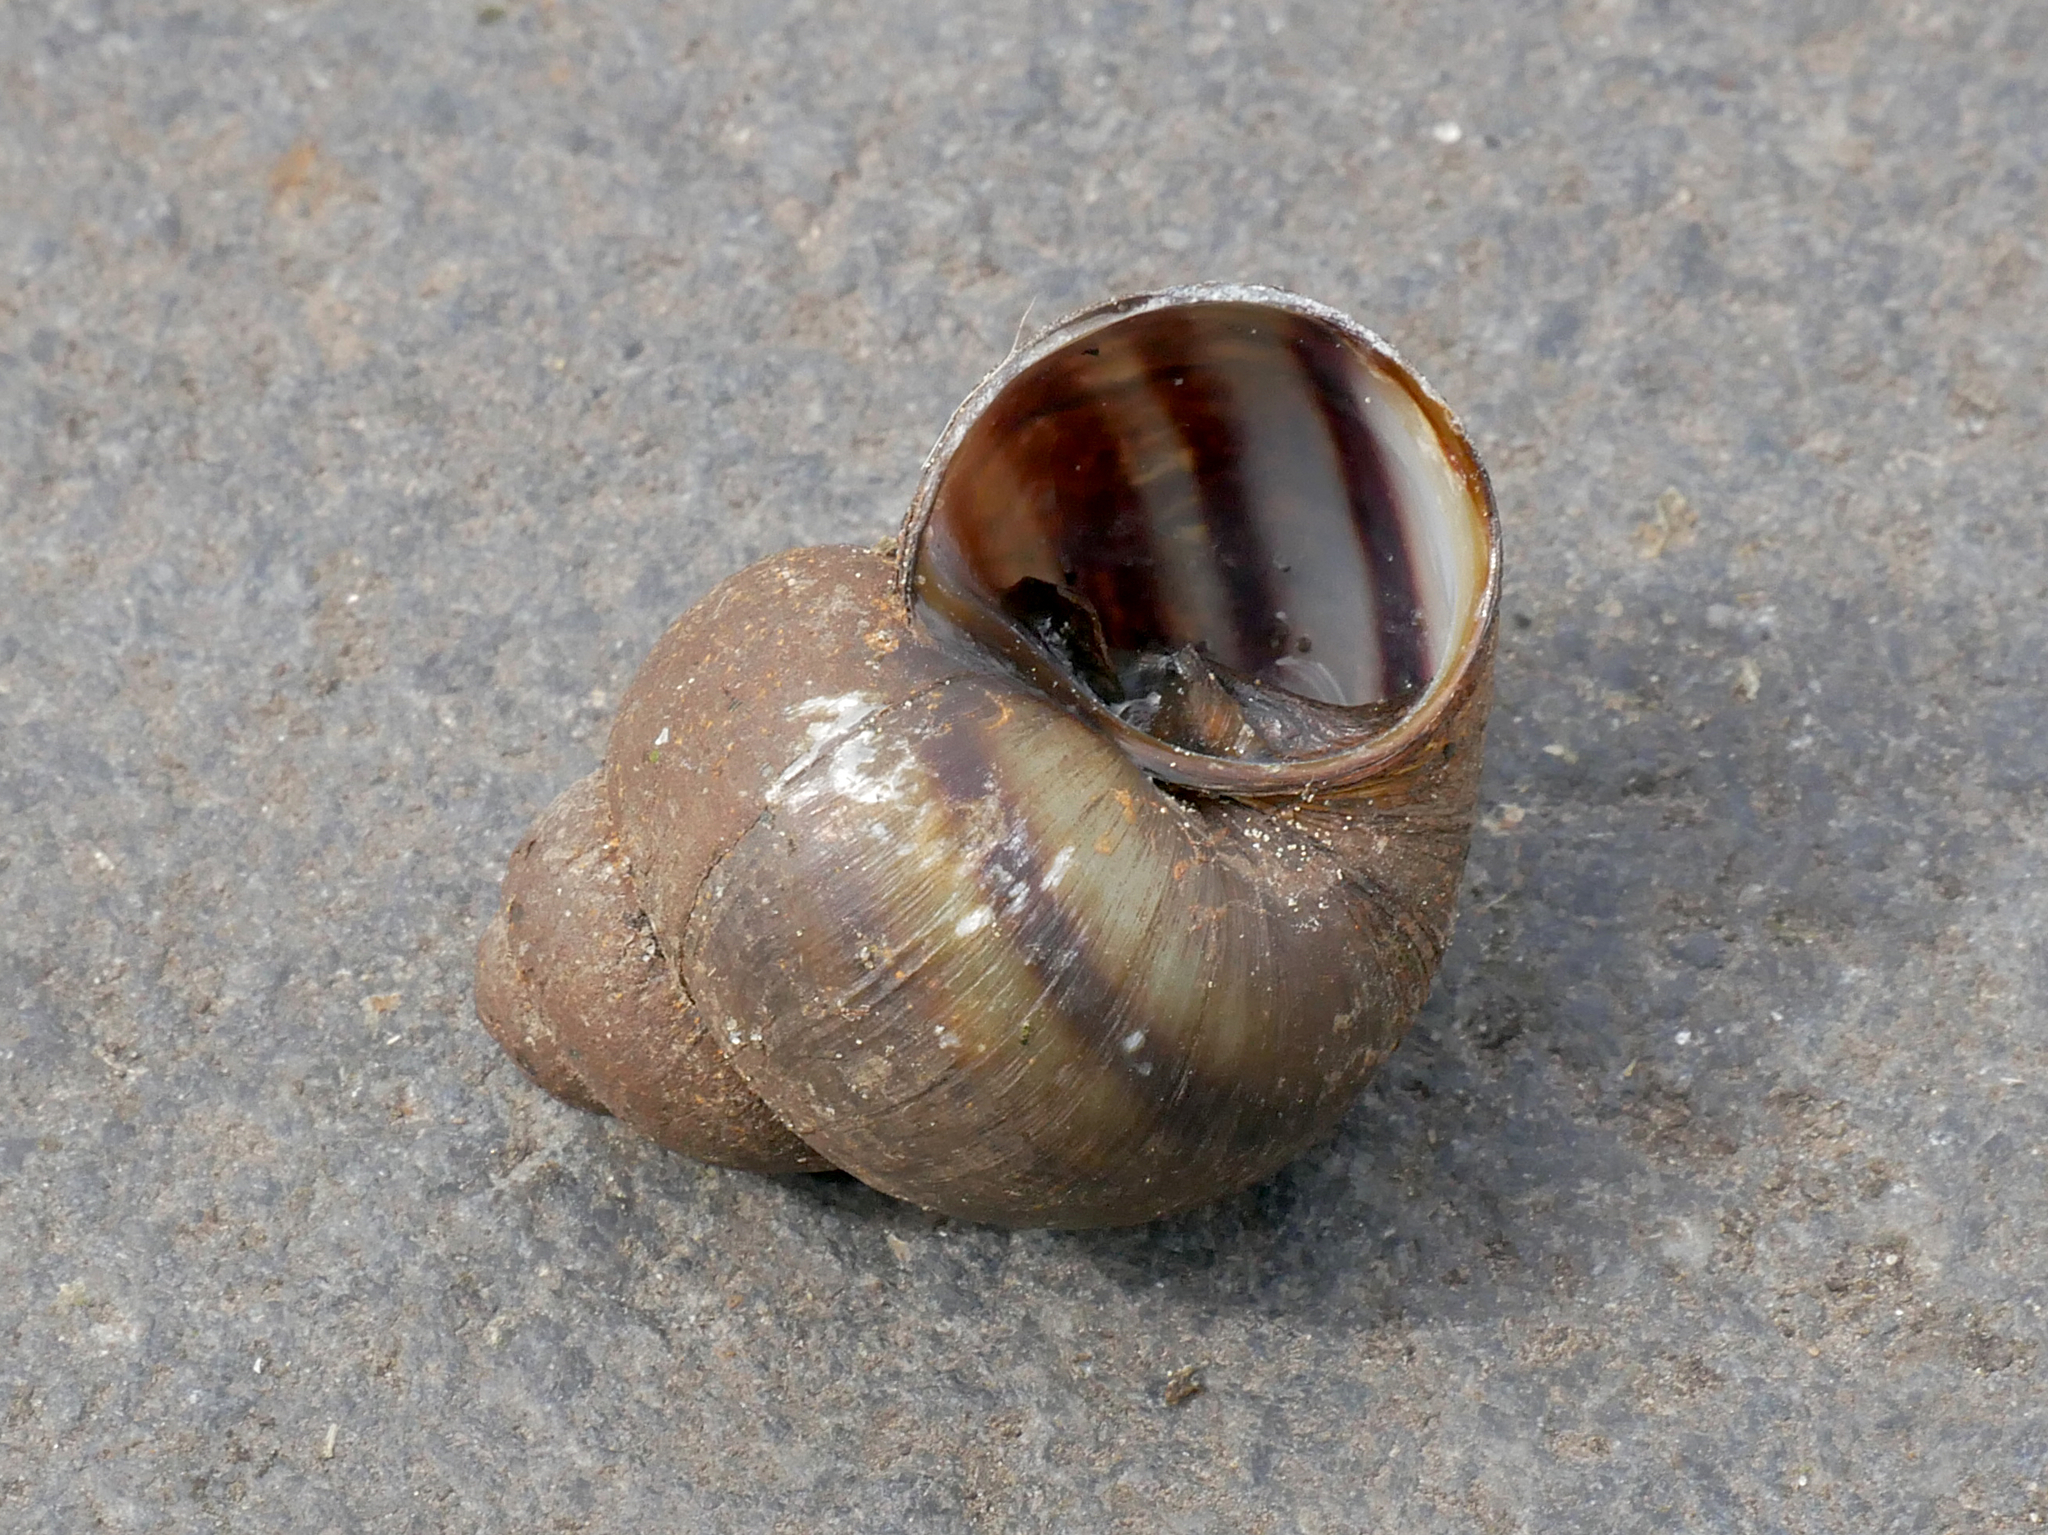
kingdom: Animalia
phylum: Mollusca
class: Gastropoda
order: Architaenioglossa
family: Viviparidae
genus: Viviparus
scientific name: Viviparus viviparus
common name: River snail
